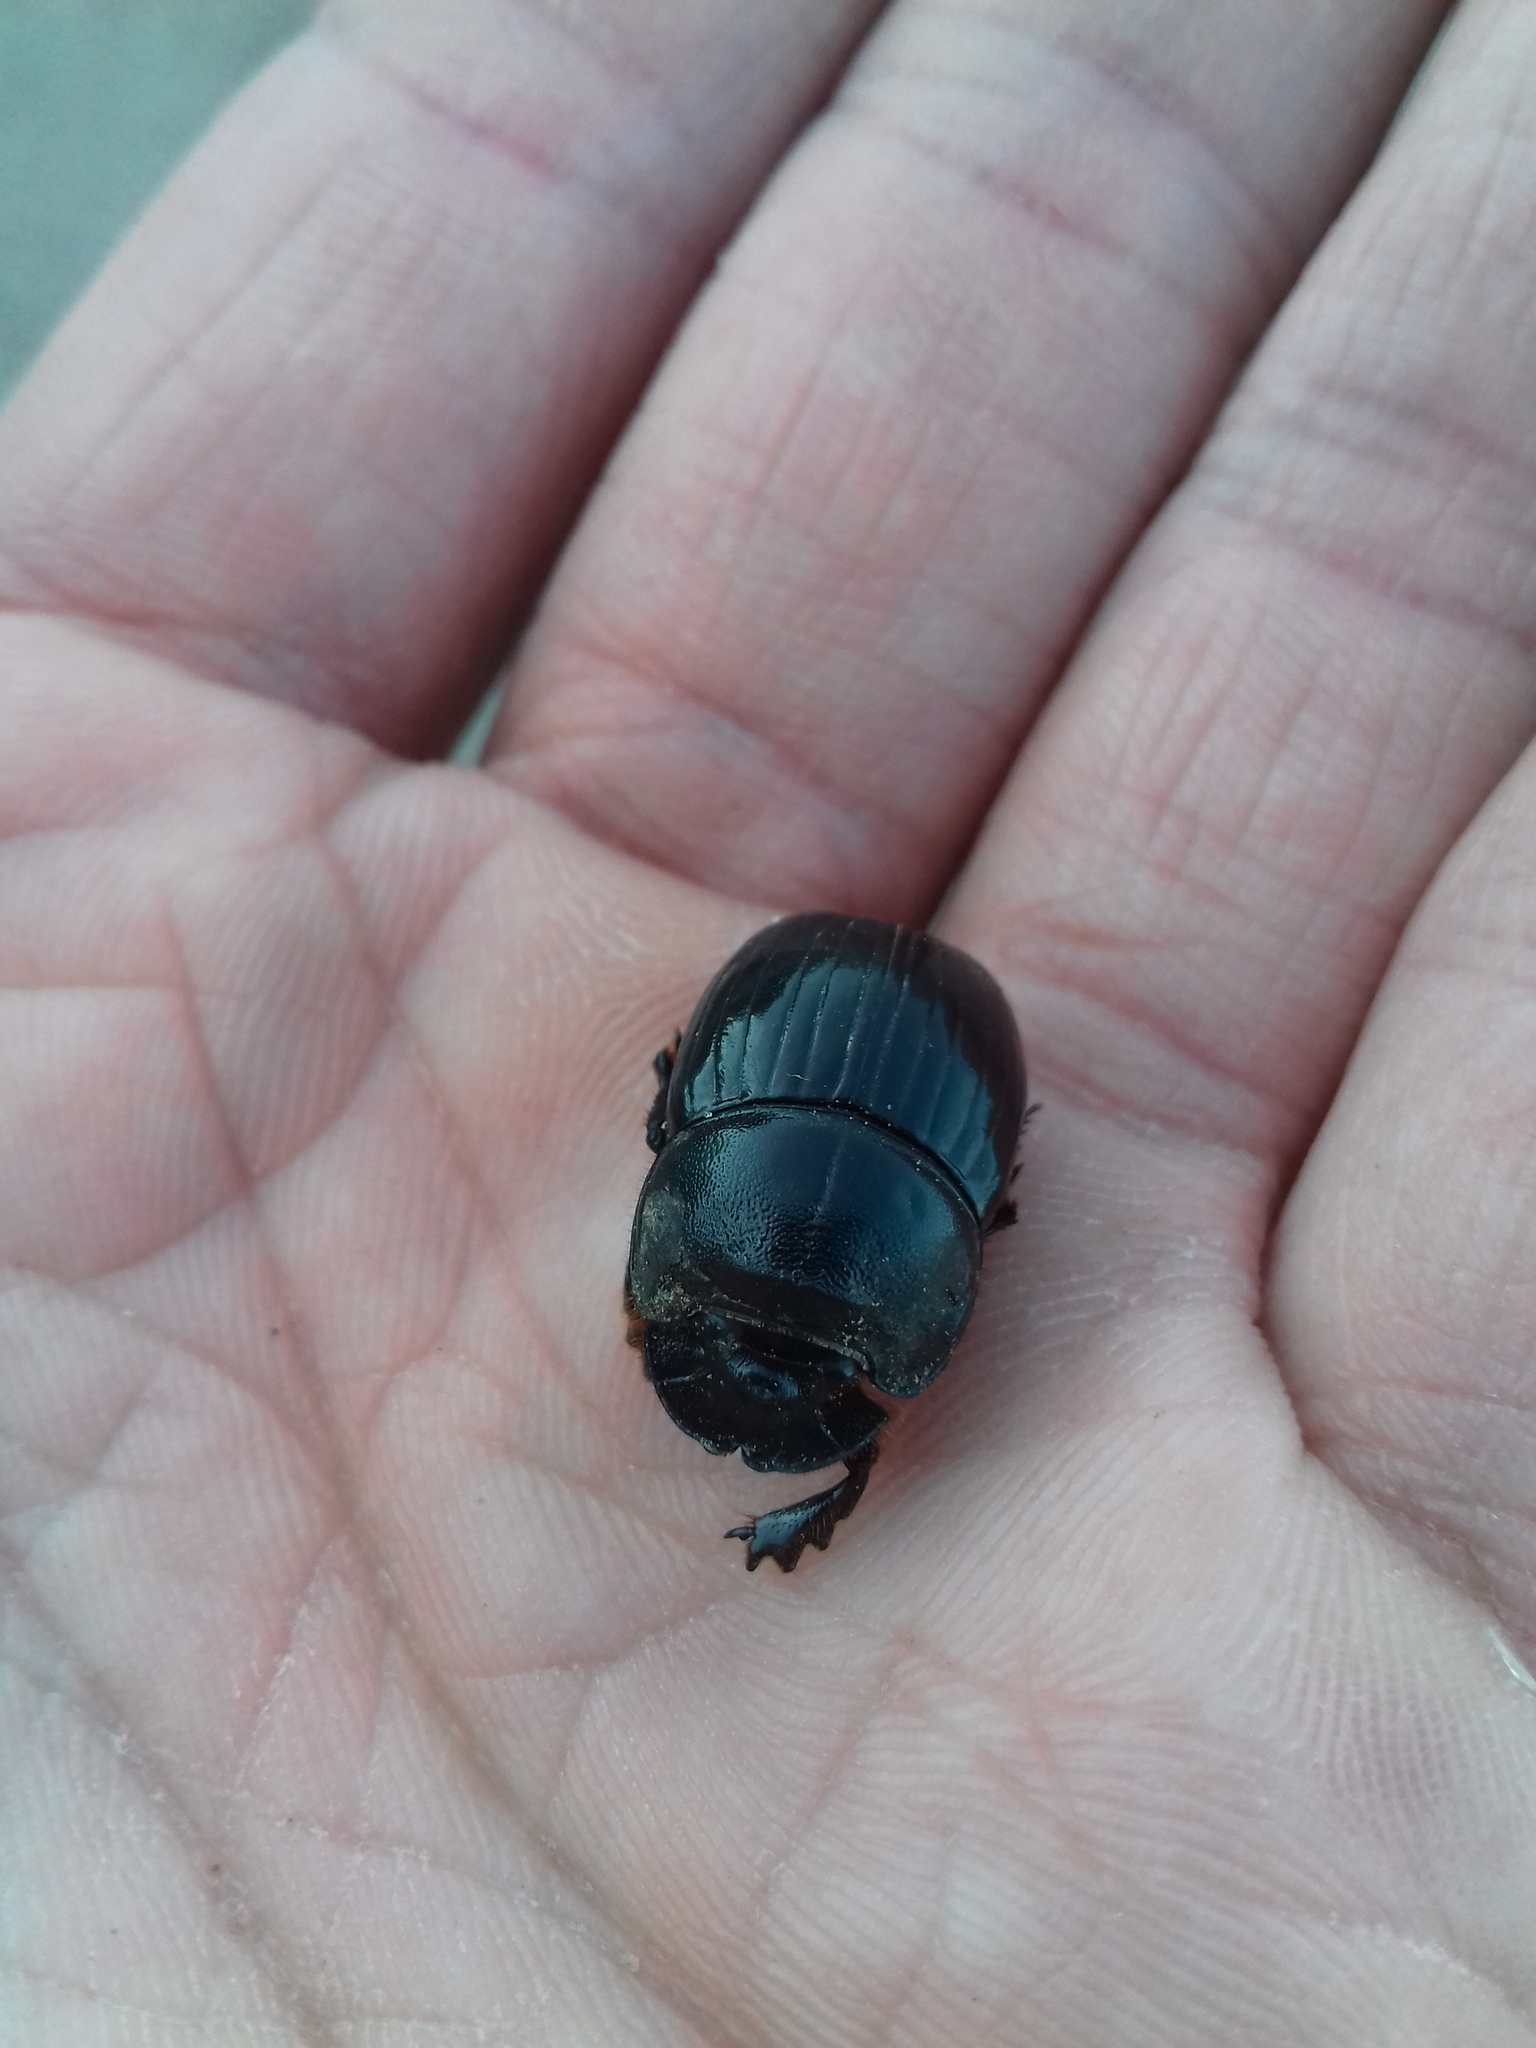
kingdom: Animalia
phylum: Arthropoda
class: Insecta
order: Coleoptera
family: Scarabaeidae
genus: Copris
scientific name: Copris lunaris
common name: Horned dung beetle
